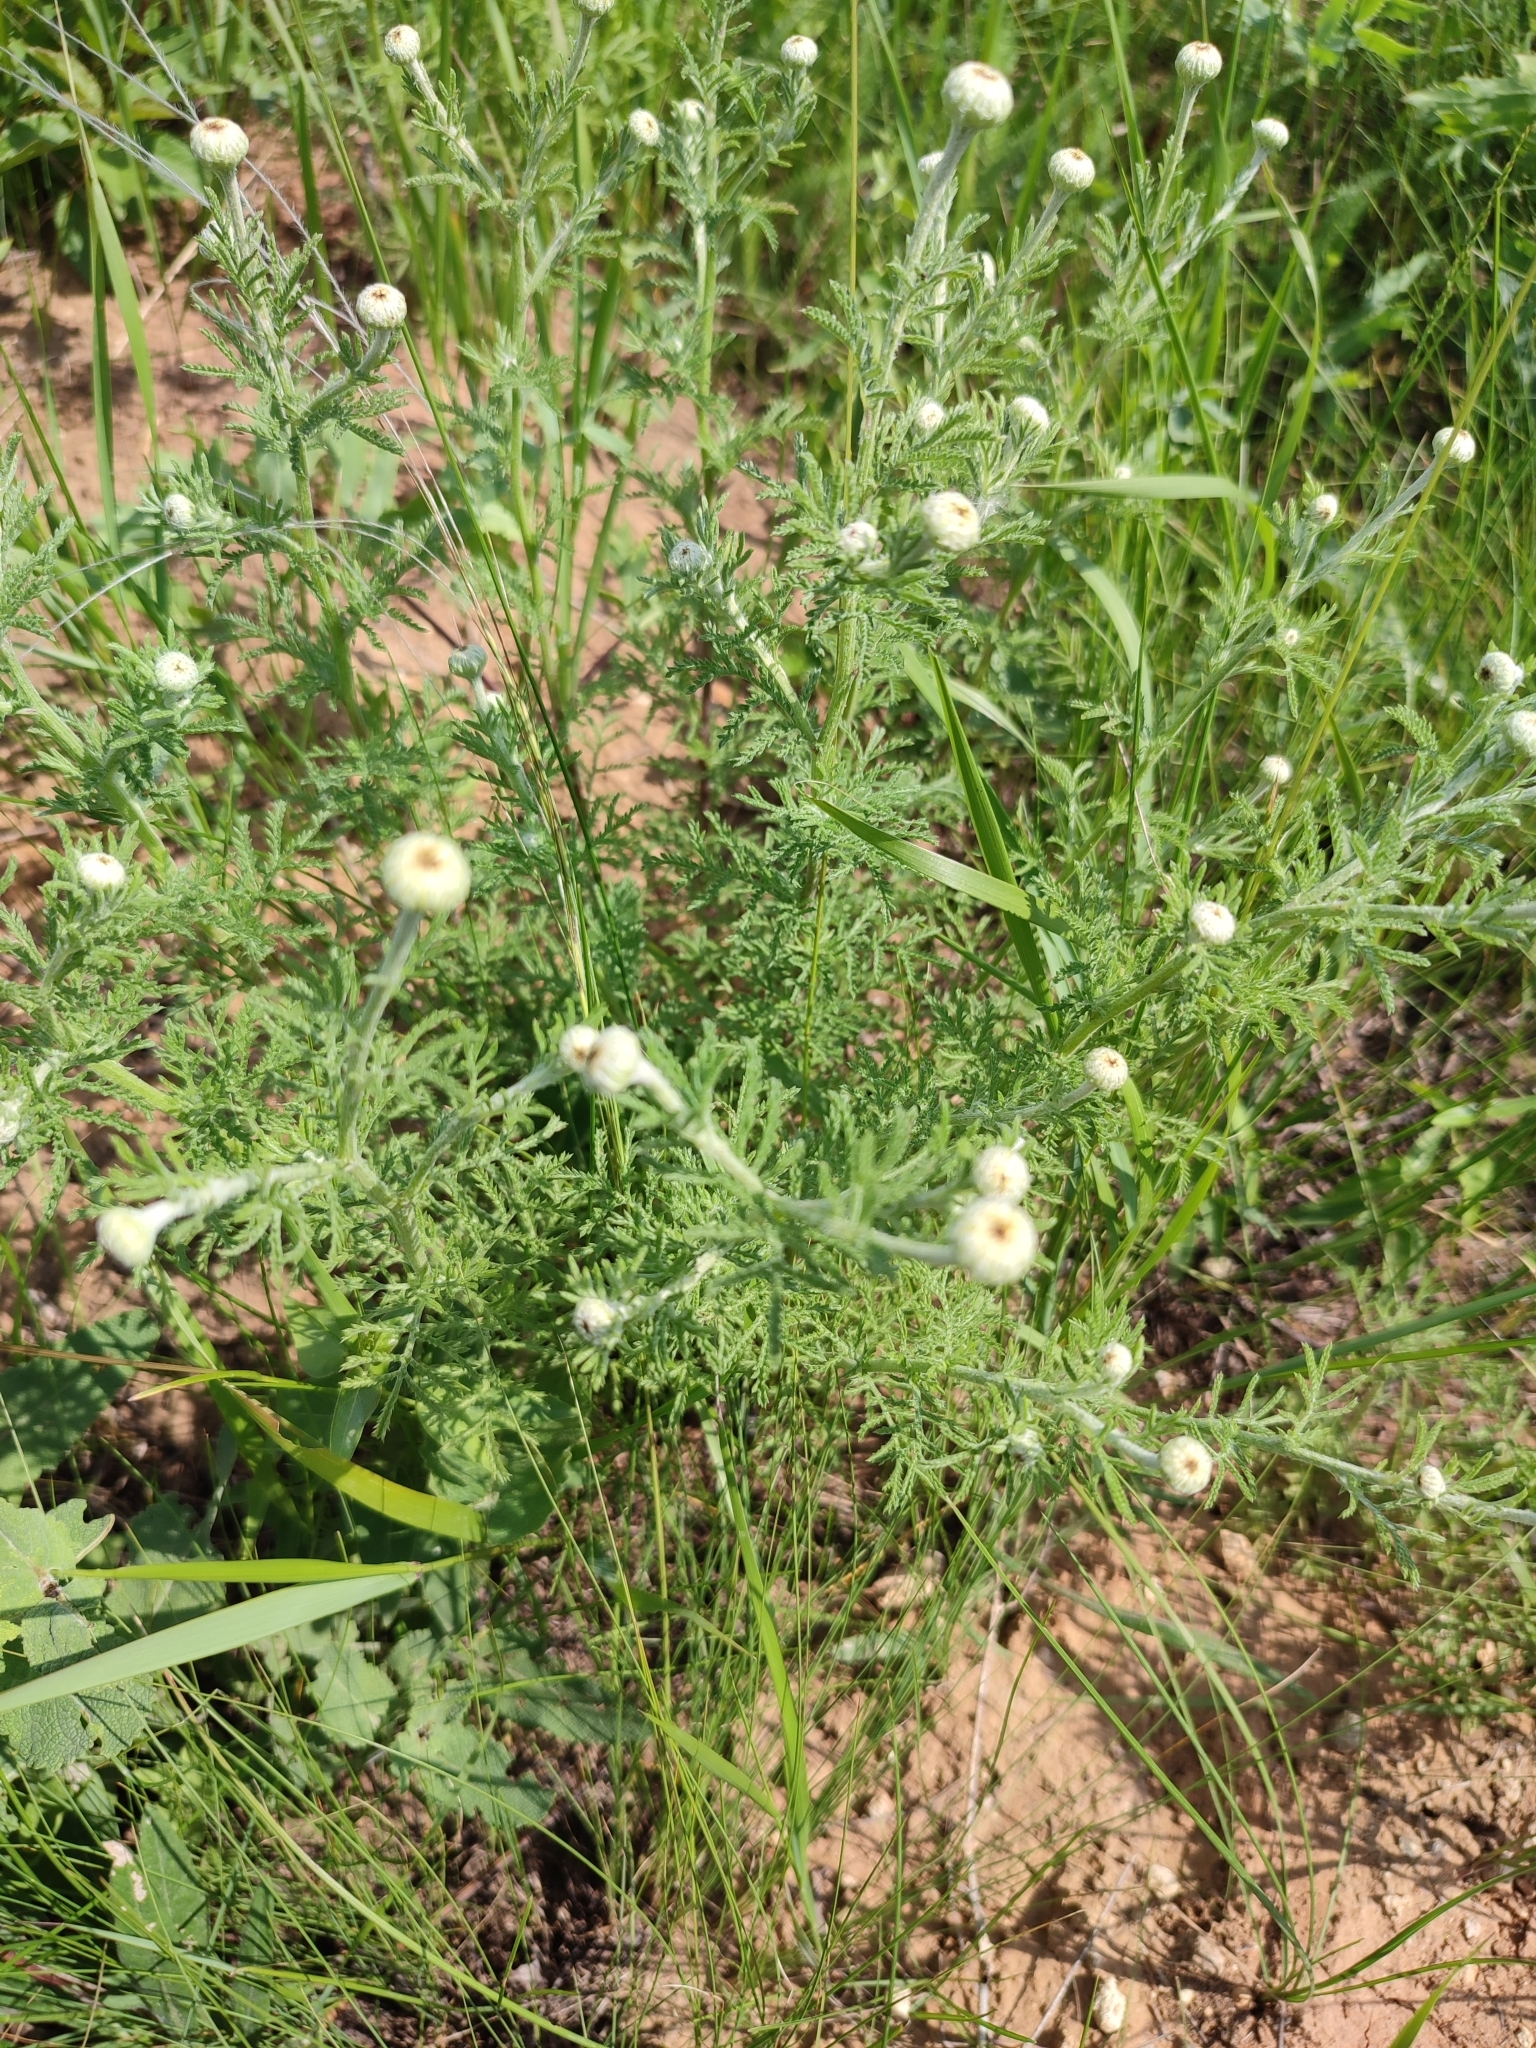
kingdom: Plantae
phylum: Tracheophyta
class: Magnoliopsida
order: Asterales
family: Asteraceae
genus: Cota
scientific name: Cota tinctoria
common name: Golden chamomile
